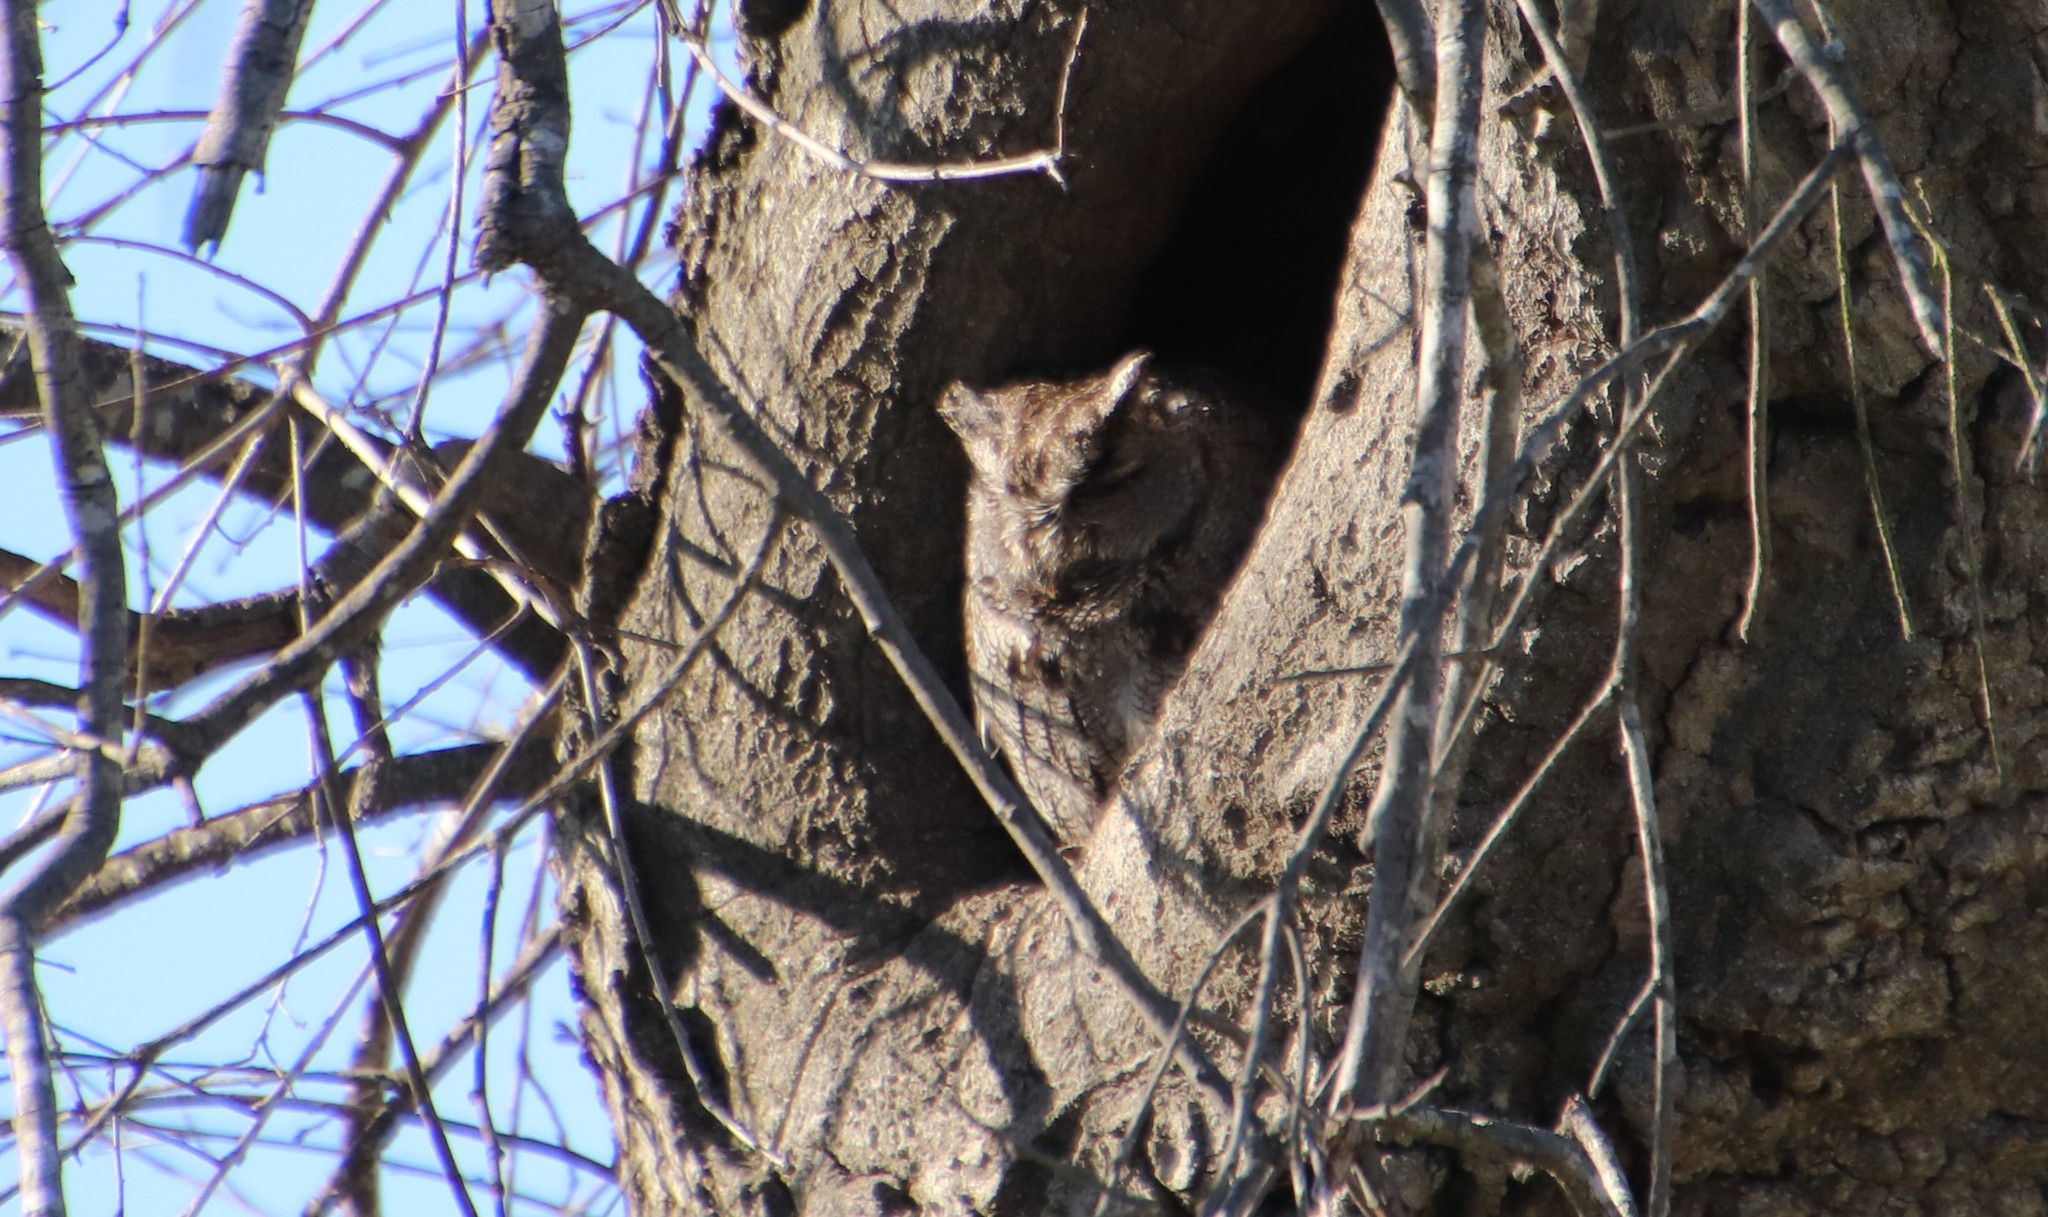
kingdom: Animalia
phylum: Chordata
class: Aves
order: Strigiformes
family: Strigidae
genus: Megascops
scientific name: Megascops kennicottii
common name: Western screech-owl
